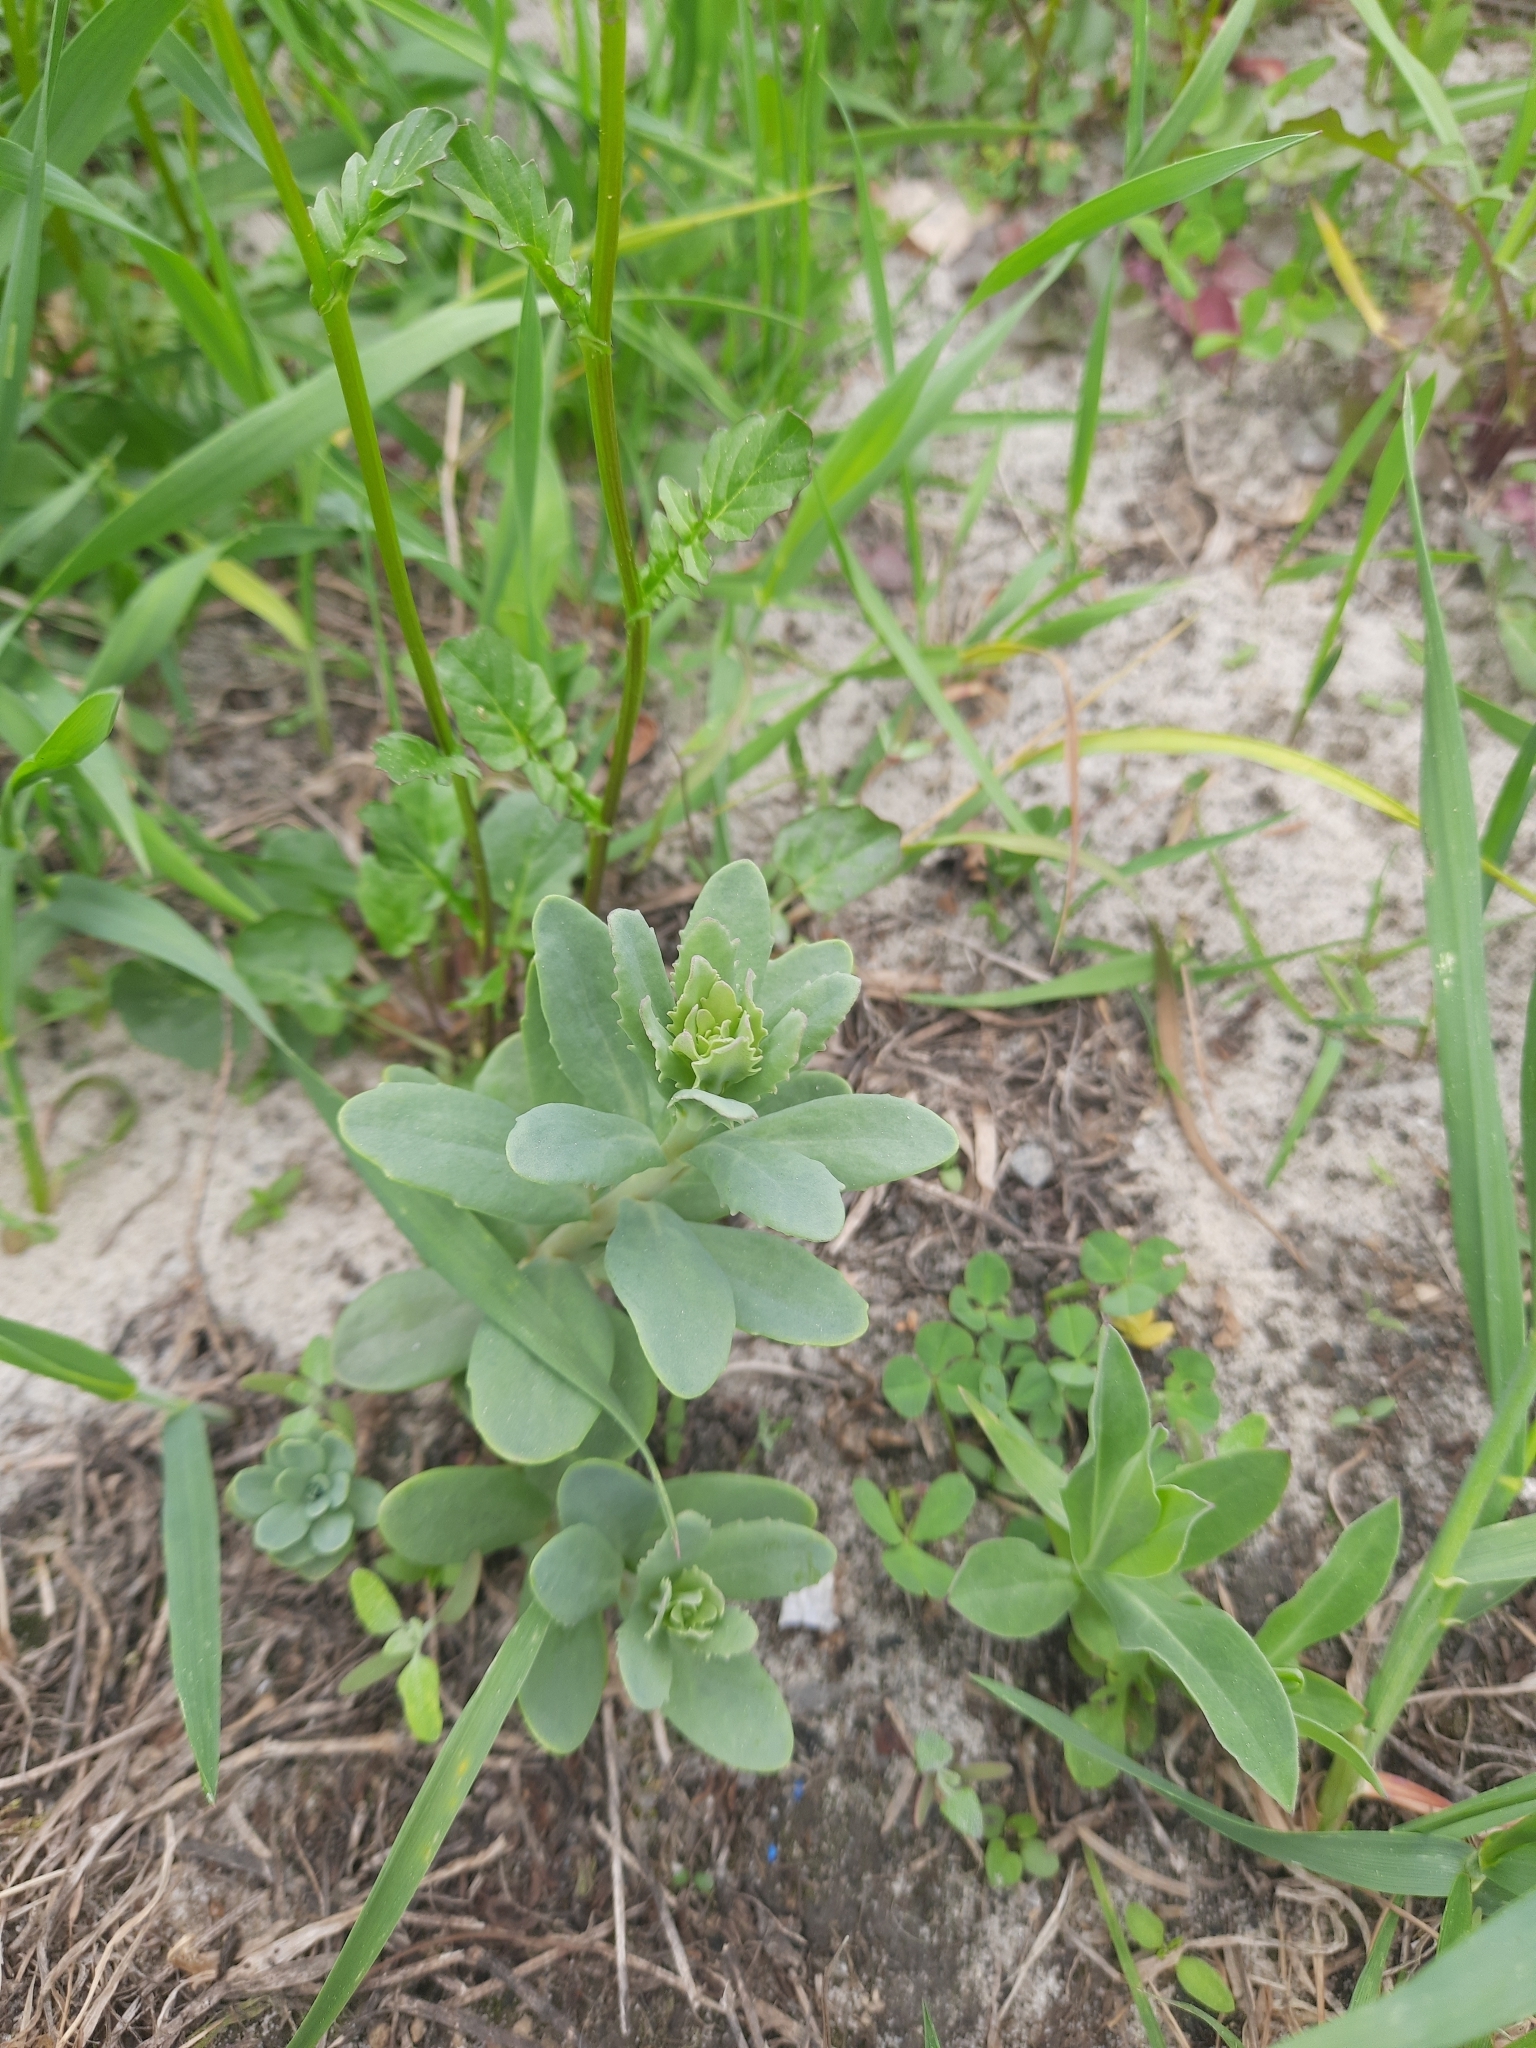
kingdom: Plantae
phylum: Tracheophyta
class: Magnoliopsida
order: Saxifragales
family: Crassulaceae
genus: Hylotelephium
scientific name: Hylotelephium telephium
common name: Live-forever
